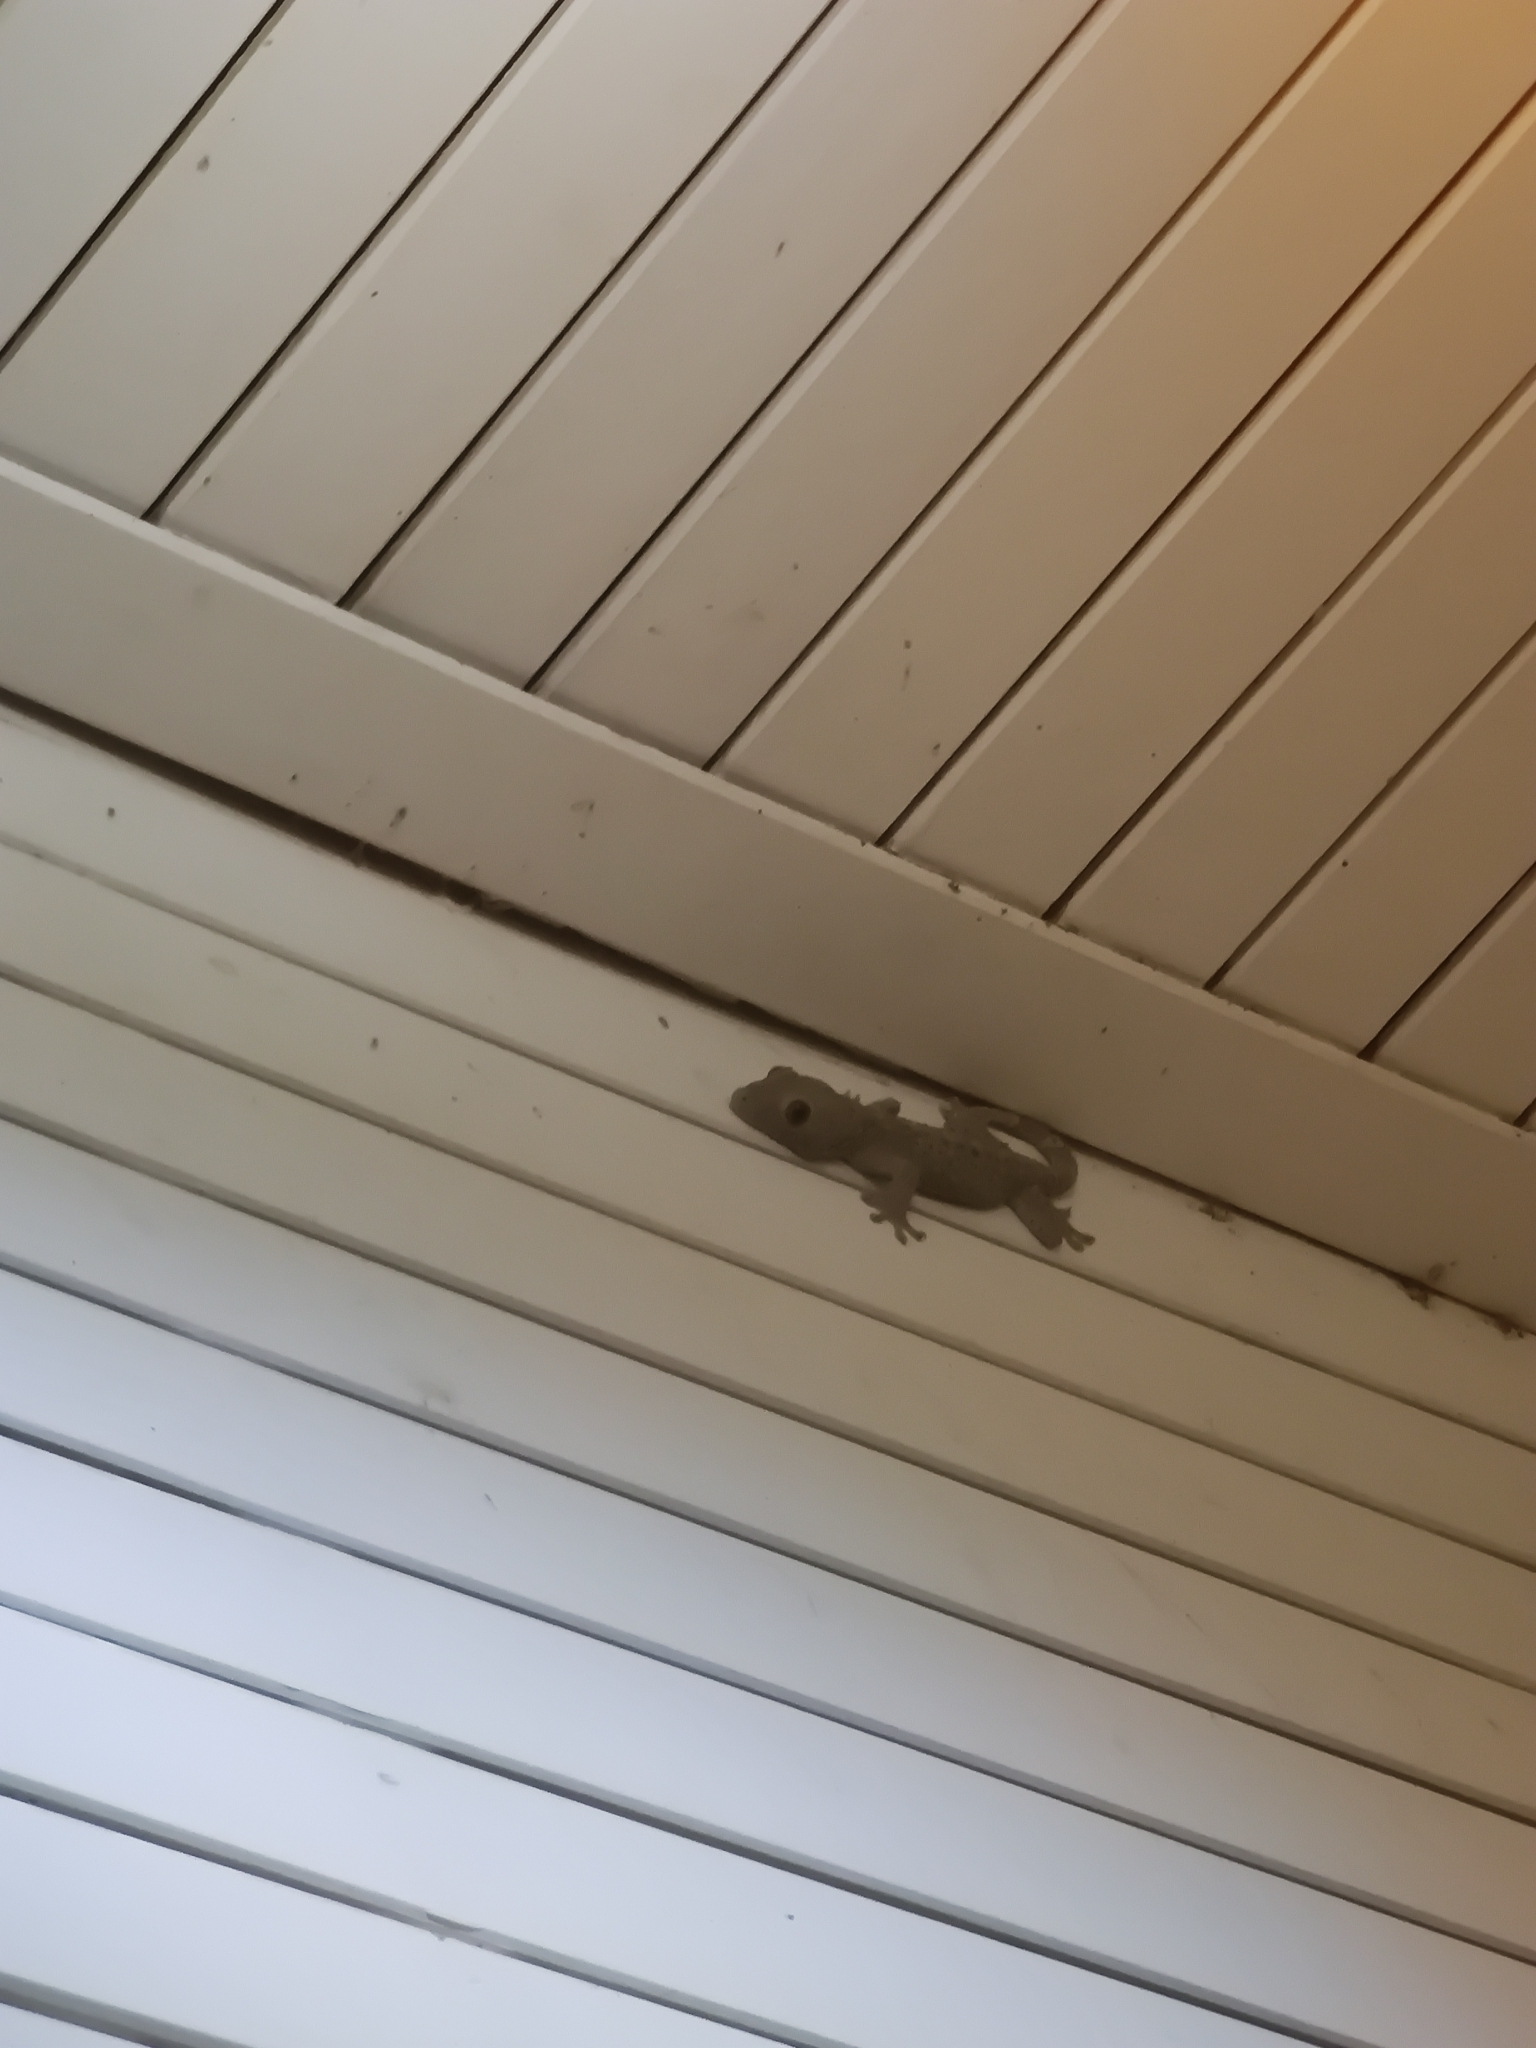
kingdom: Animalia
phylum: Chordata
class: Squamata
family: Gekkonidae
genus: Gekko
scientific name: Gekko gecko
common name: Tokay gecko
